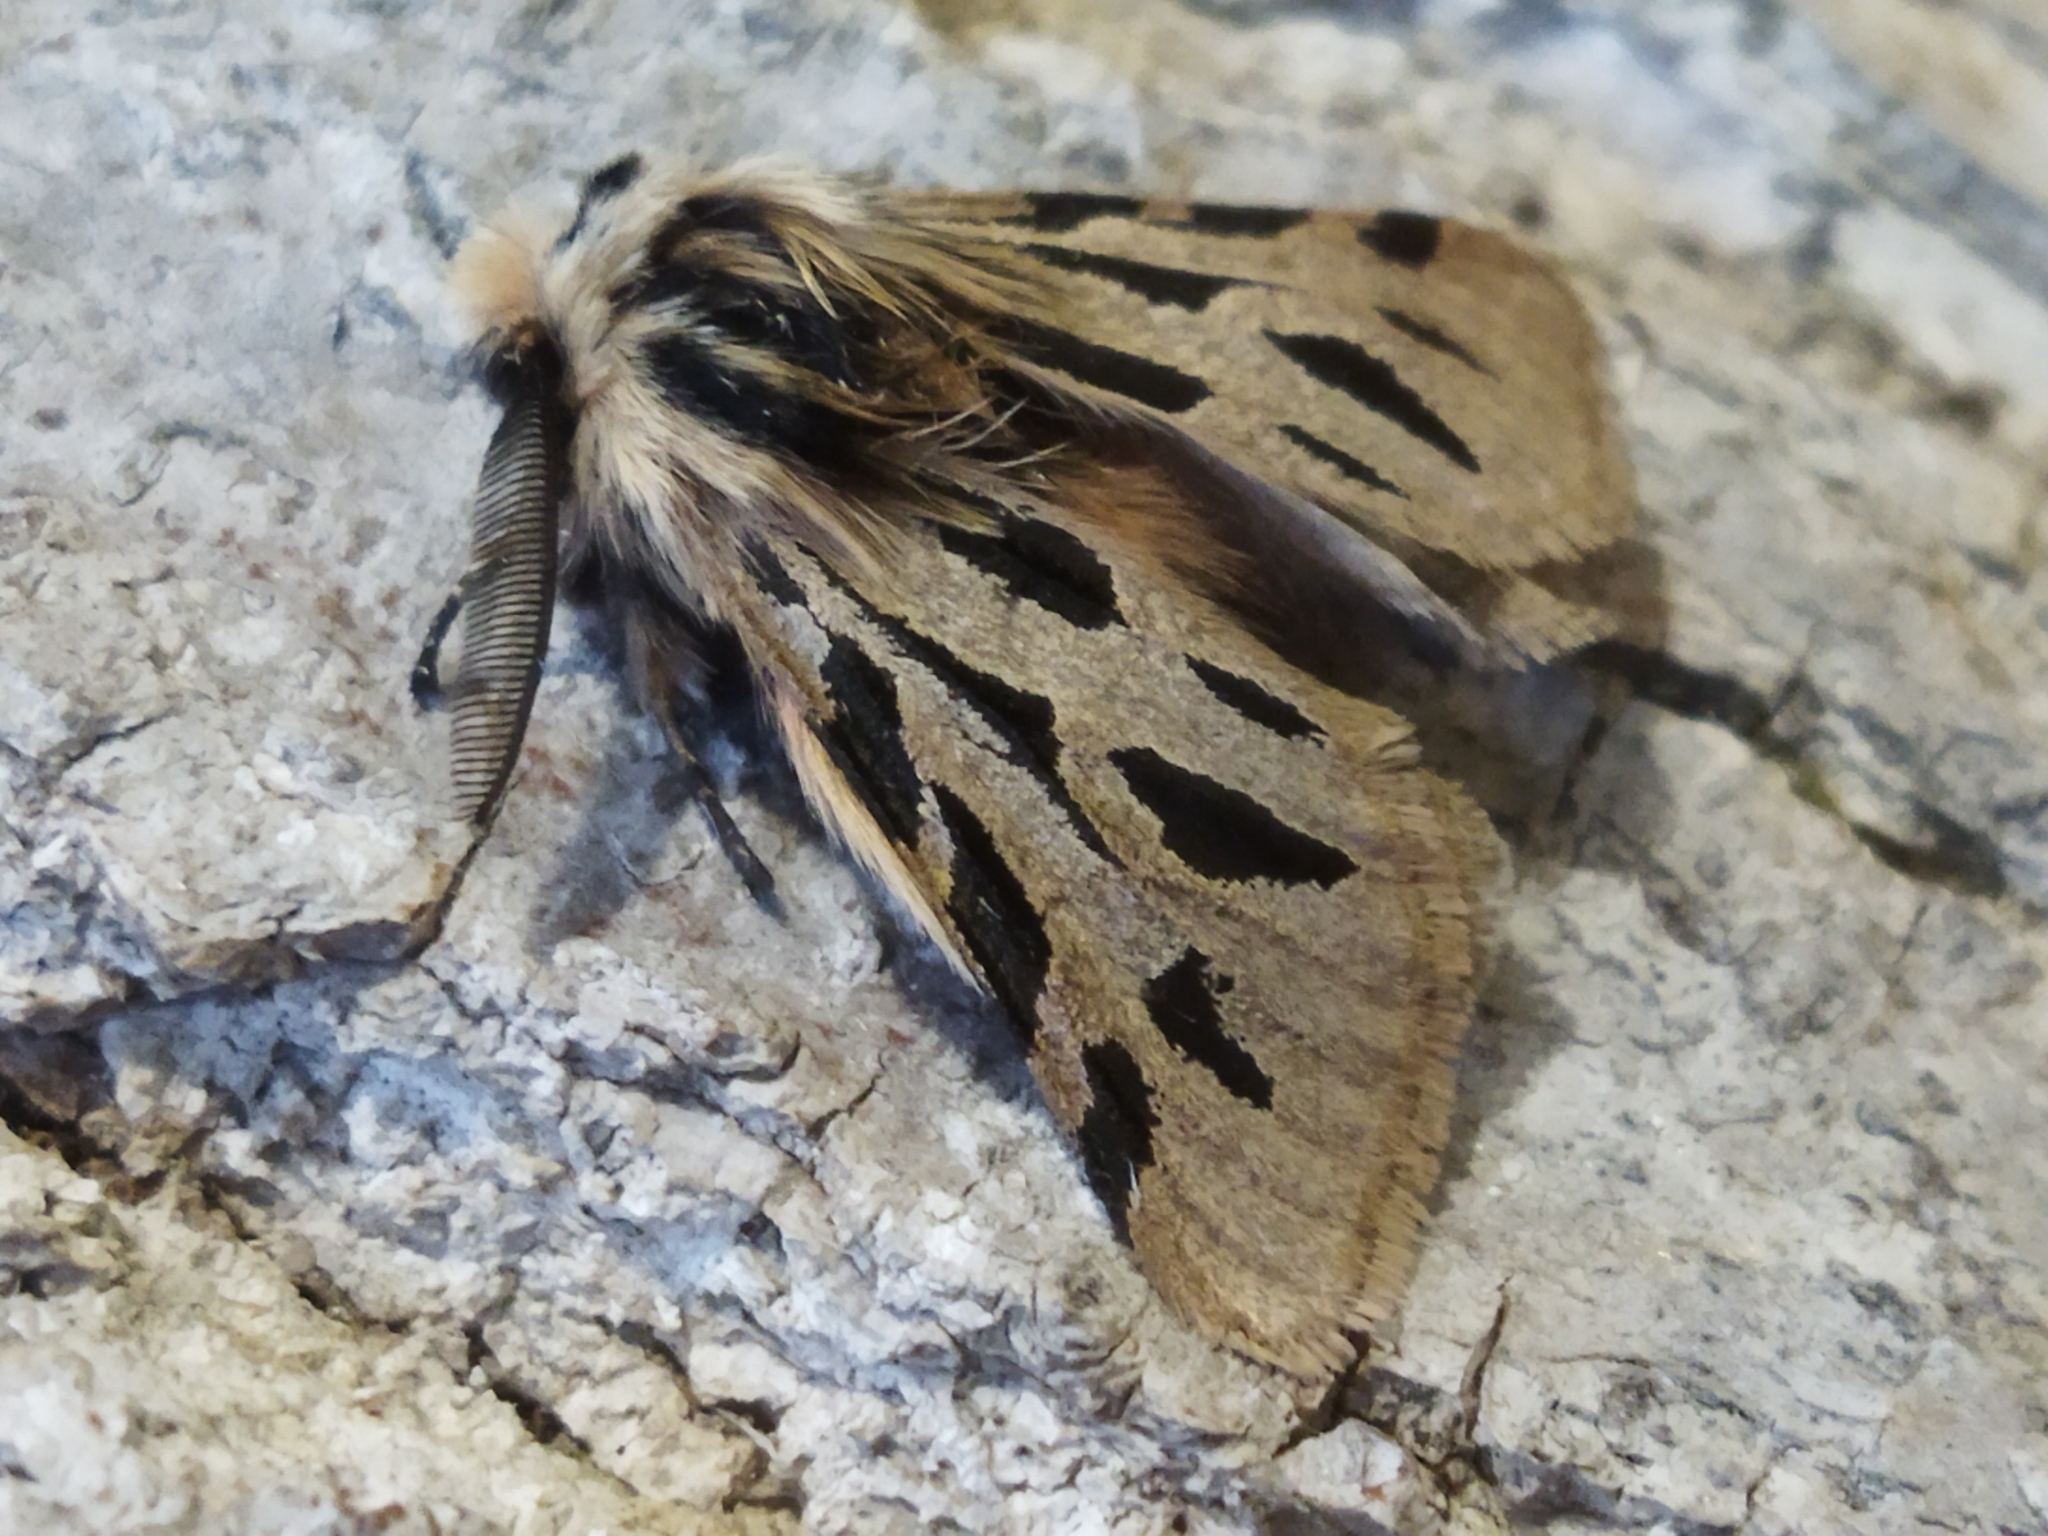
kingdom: Animalia
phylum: Arthropoda
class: Insecta
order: Lepidoptera
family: Erebidae
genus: Ocnogyna
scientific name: Ocnogyna parasita
